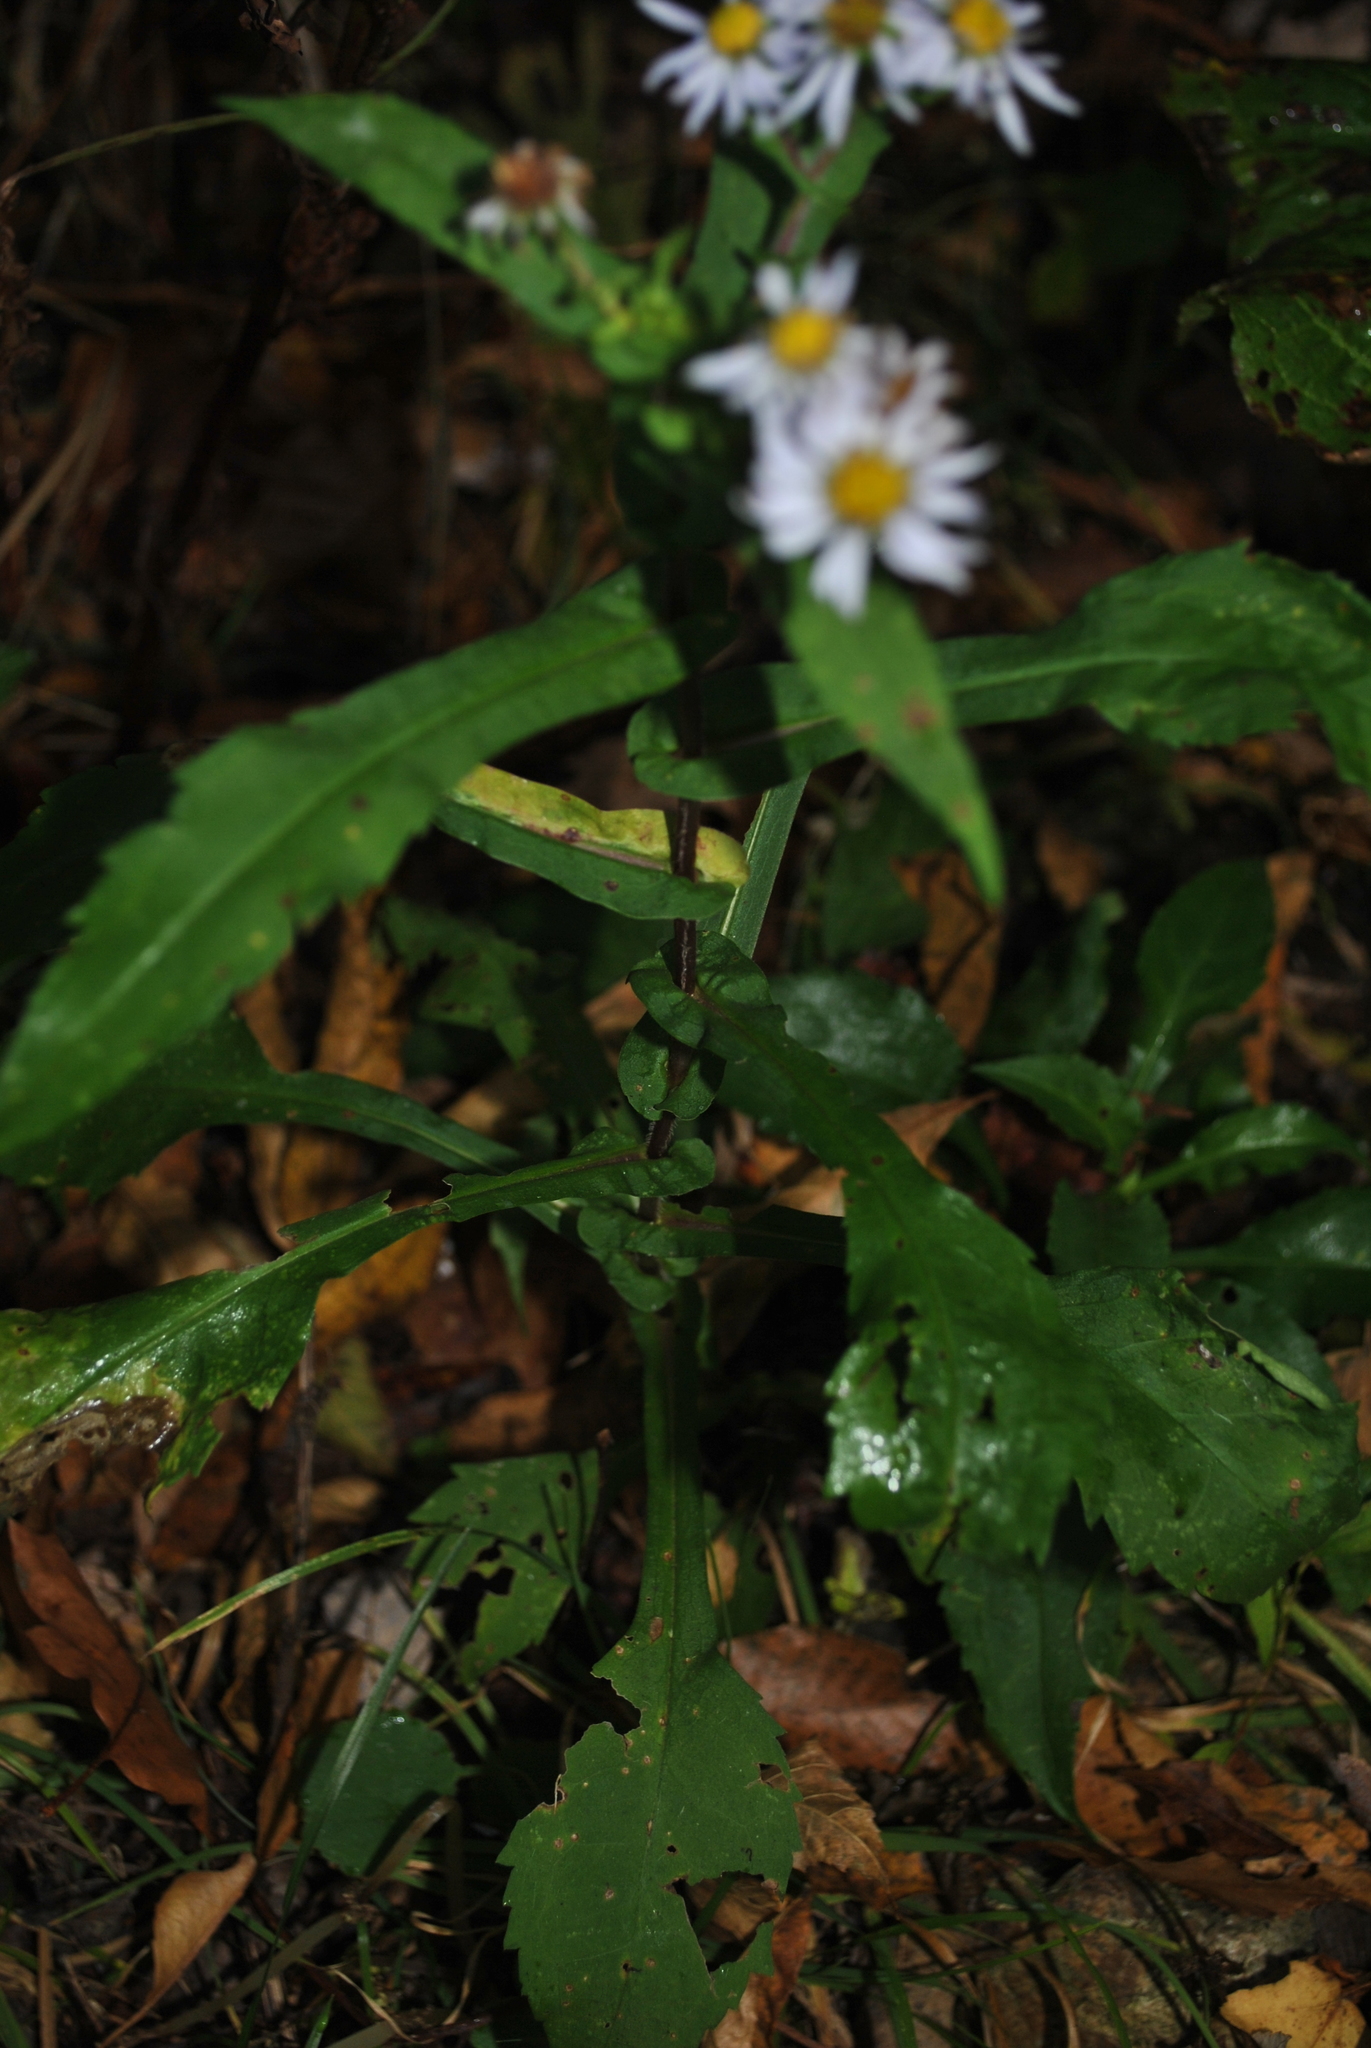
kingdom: Plantae
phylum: Tracheophyta
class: Magnoliopsida
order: Asterales
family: Asteraceae
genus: Symphyotrichum
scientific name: Symphyotrichum prenanthoides
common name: Crooked-stem aster
